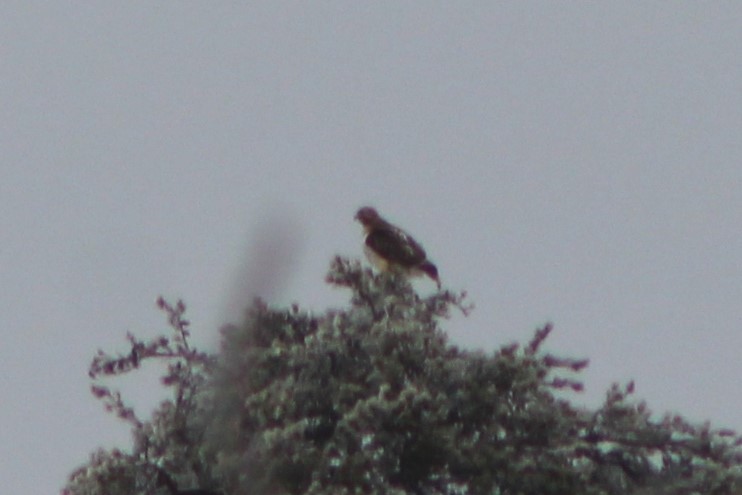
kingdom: Animalia
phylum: Chordata
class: Aves
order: Accipitriformes
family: Accipitridae
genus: Buteo
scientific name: Buteo jamaicensis
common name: Red-tailed hawk
